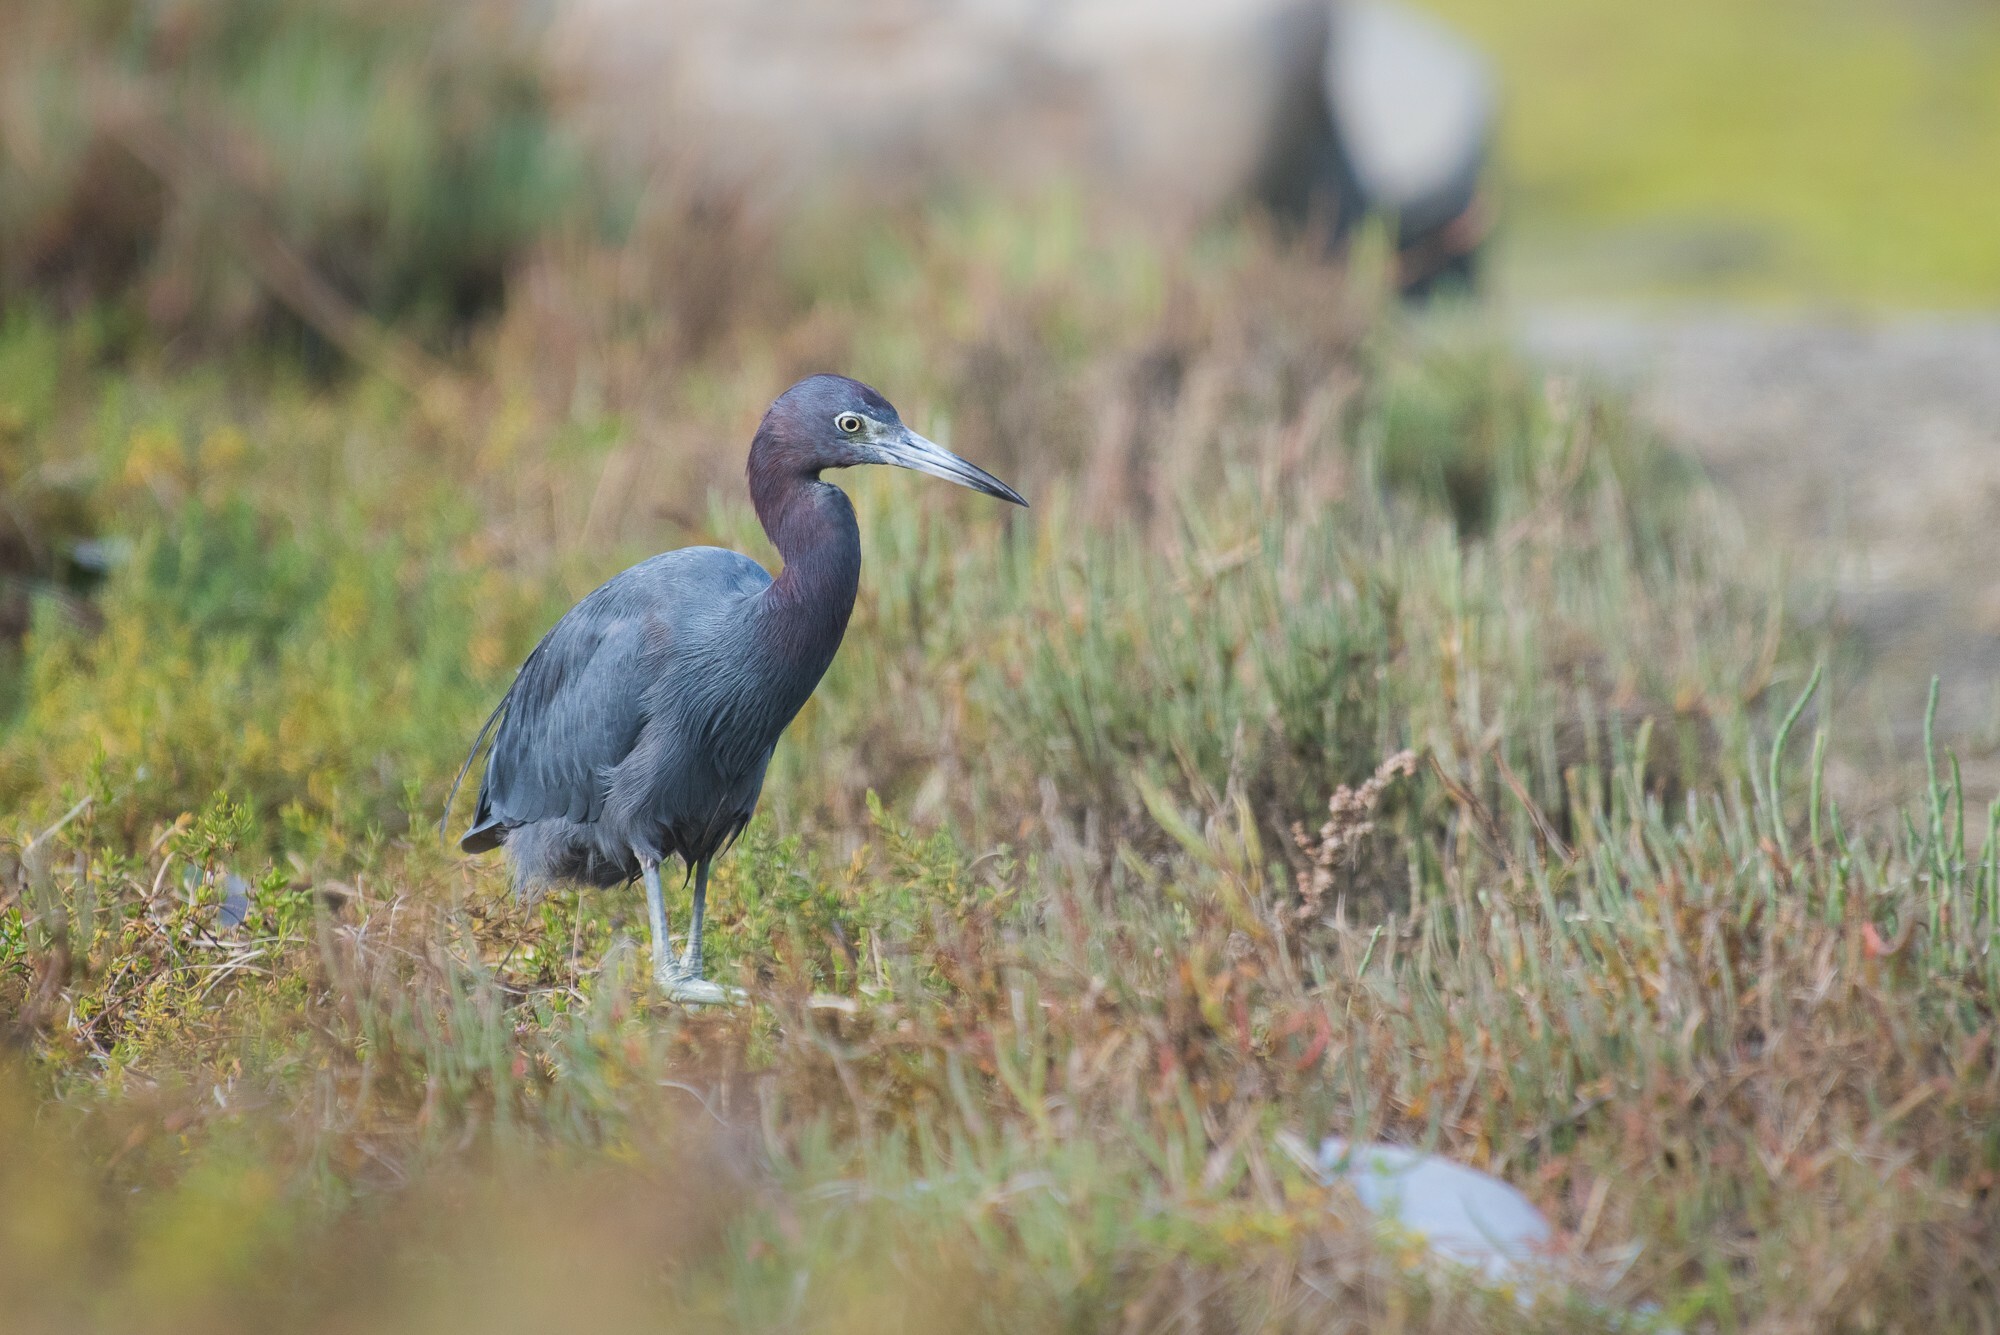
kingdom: Animalia
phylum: Chordata
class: Aves
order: Pelecaniformes
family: Ardeidae
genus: Egretta
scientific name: Egretta caerulea
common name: Little blue heron
